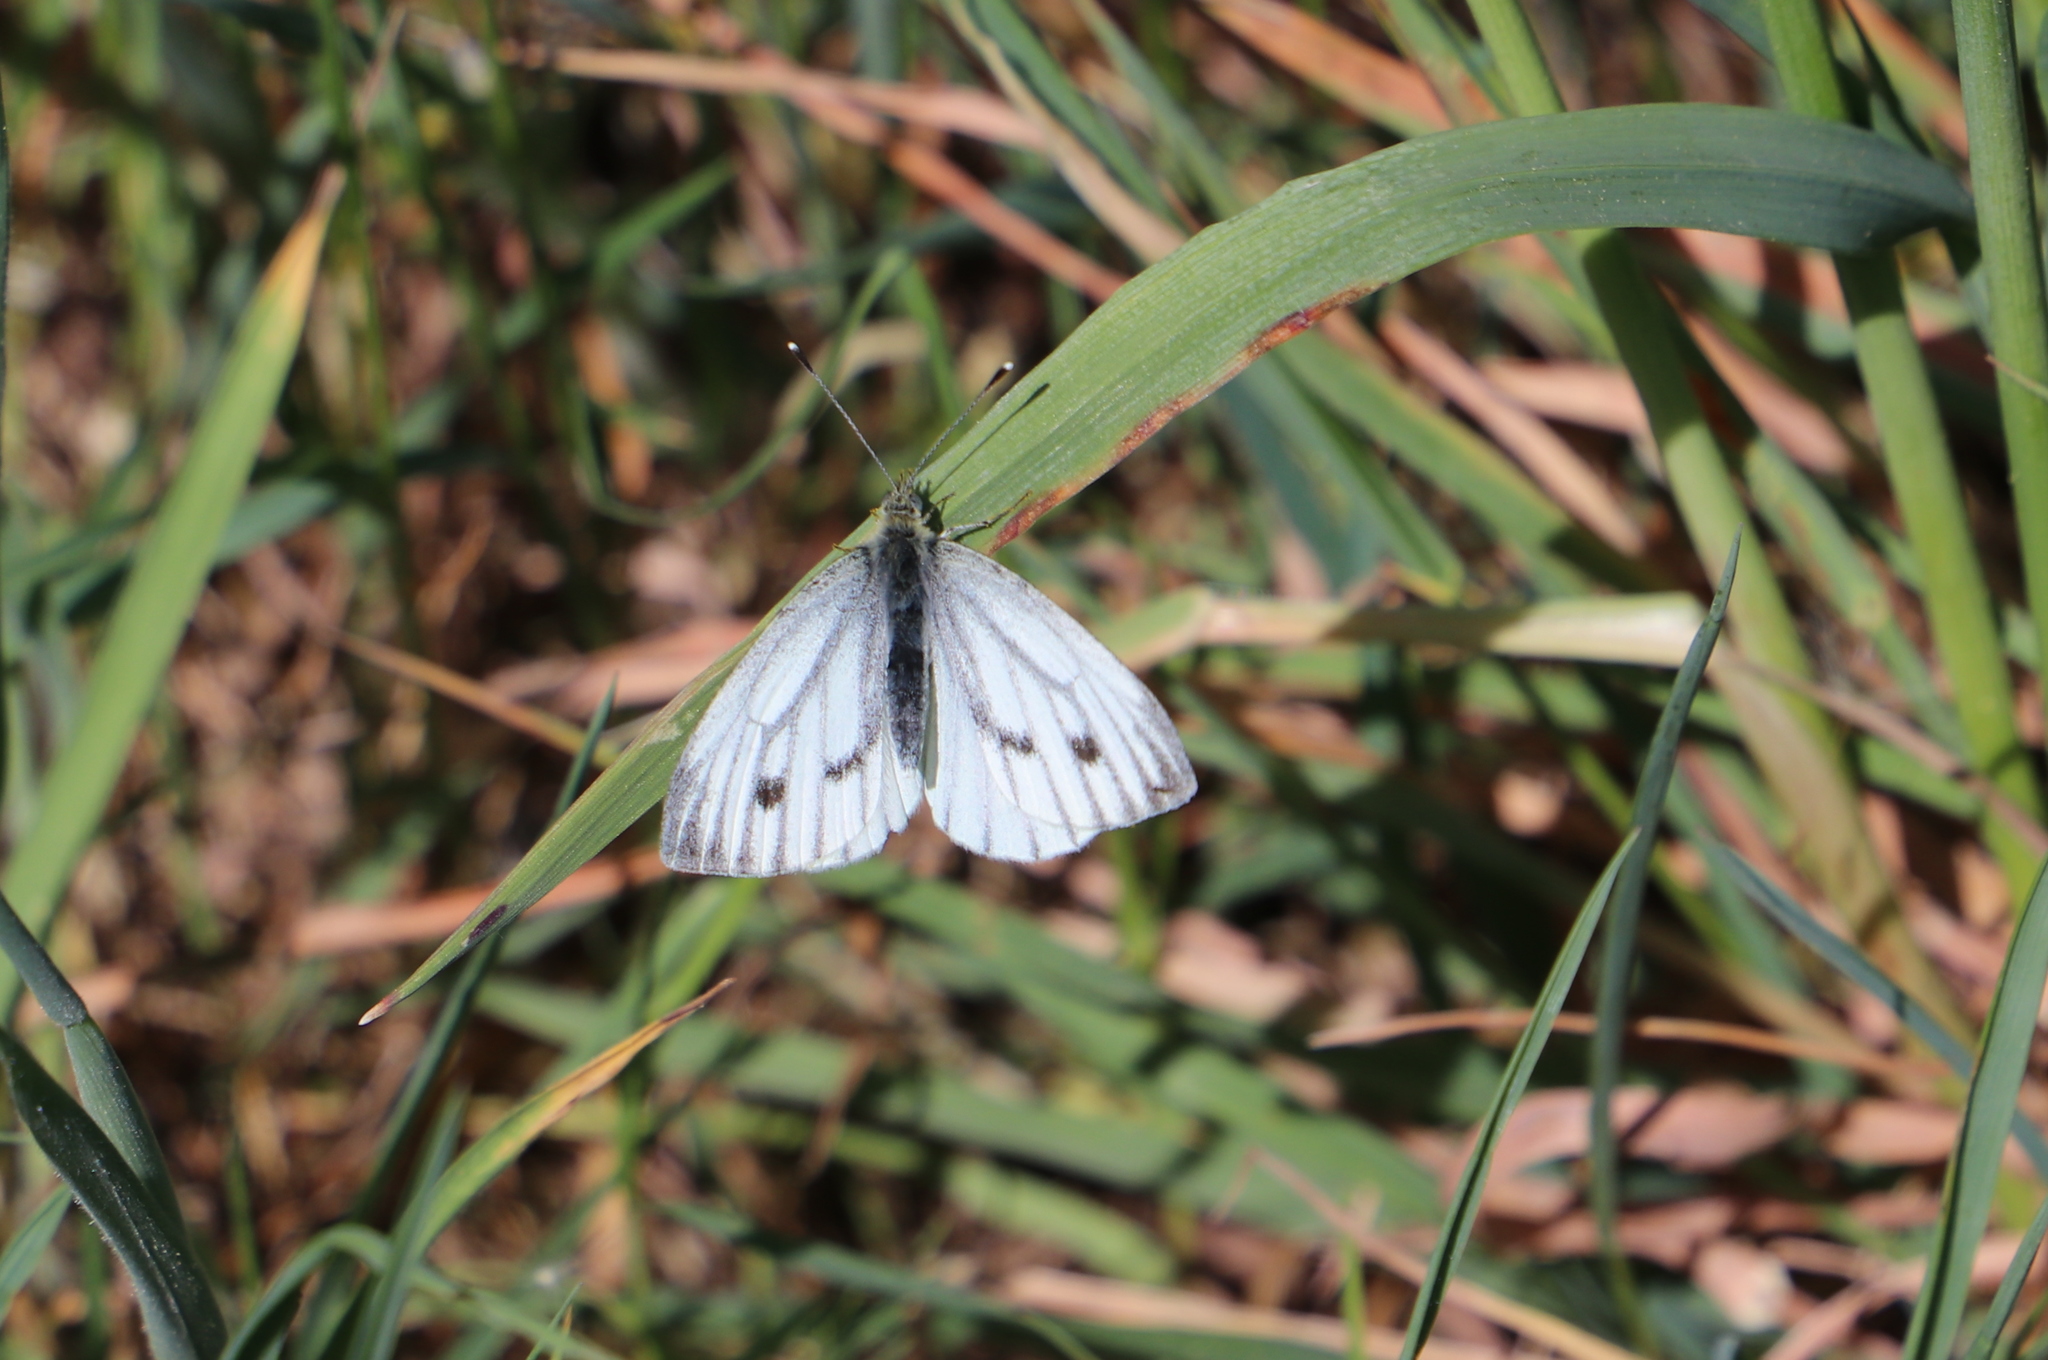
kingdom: Animalia
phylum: Arthropoda
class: Insecta
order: Lepidoptera
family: Pieridae
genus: Pieris
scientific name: Pieris napi
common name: Green-veined white
